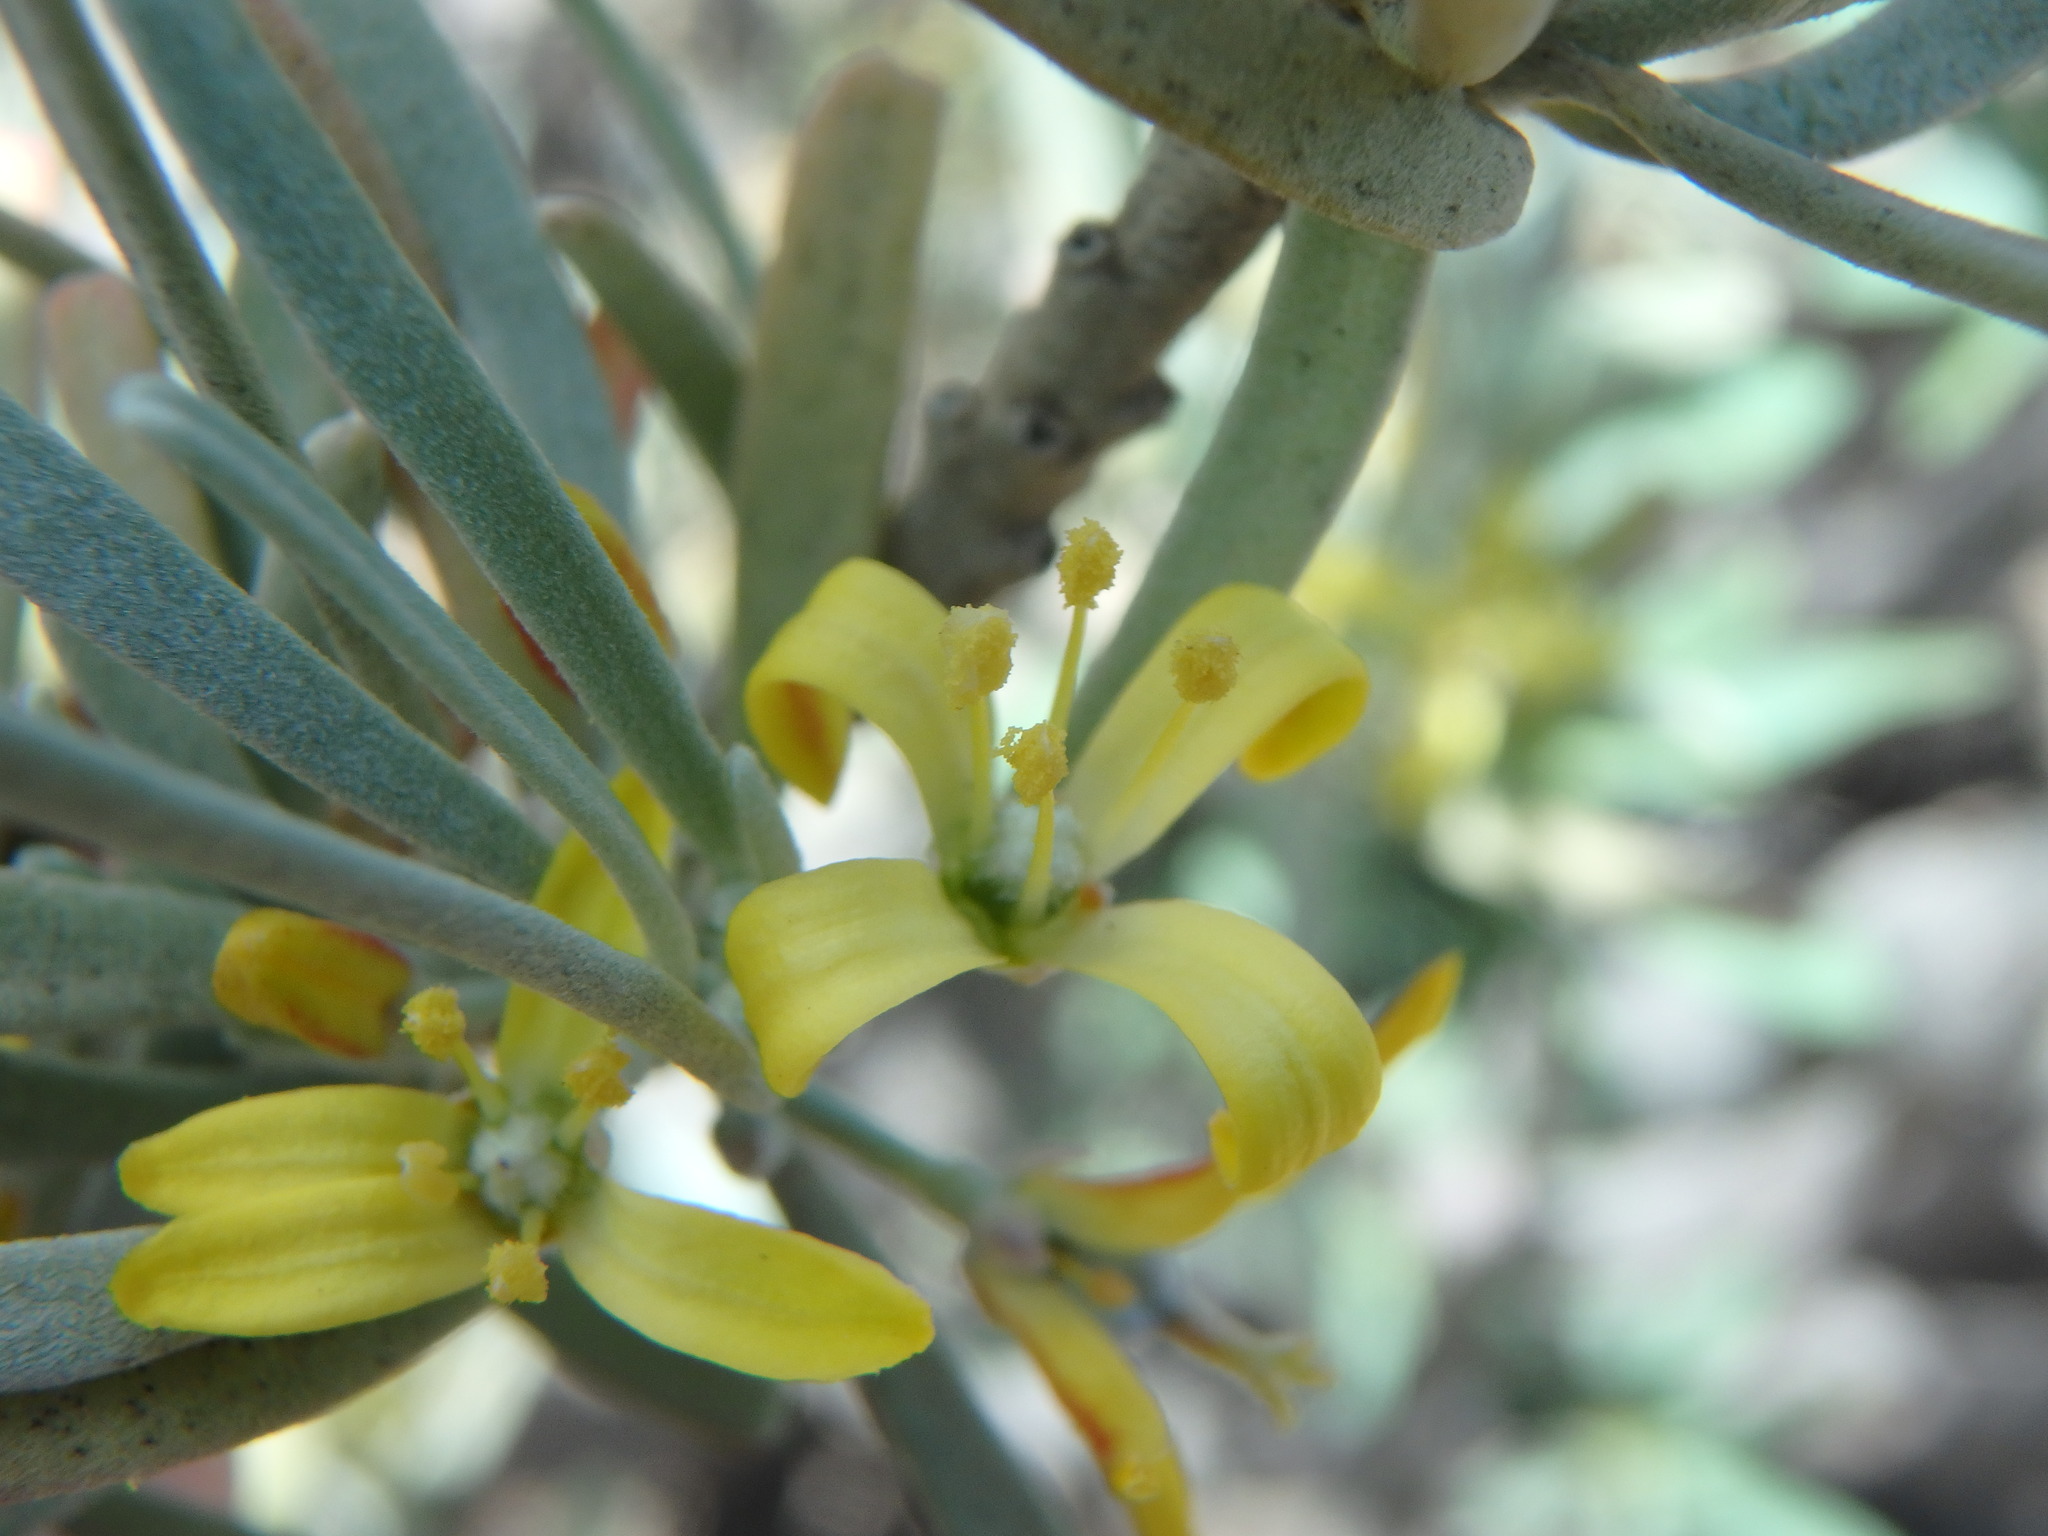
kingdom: Plantae
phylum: Tracheophyta
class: Magnoliopsida
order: Sapindales
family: Rutaceae
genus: Cneorum
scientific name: Cneorum pulverulentum
